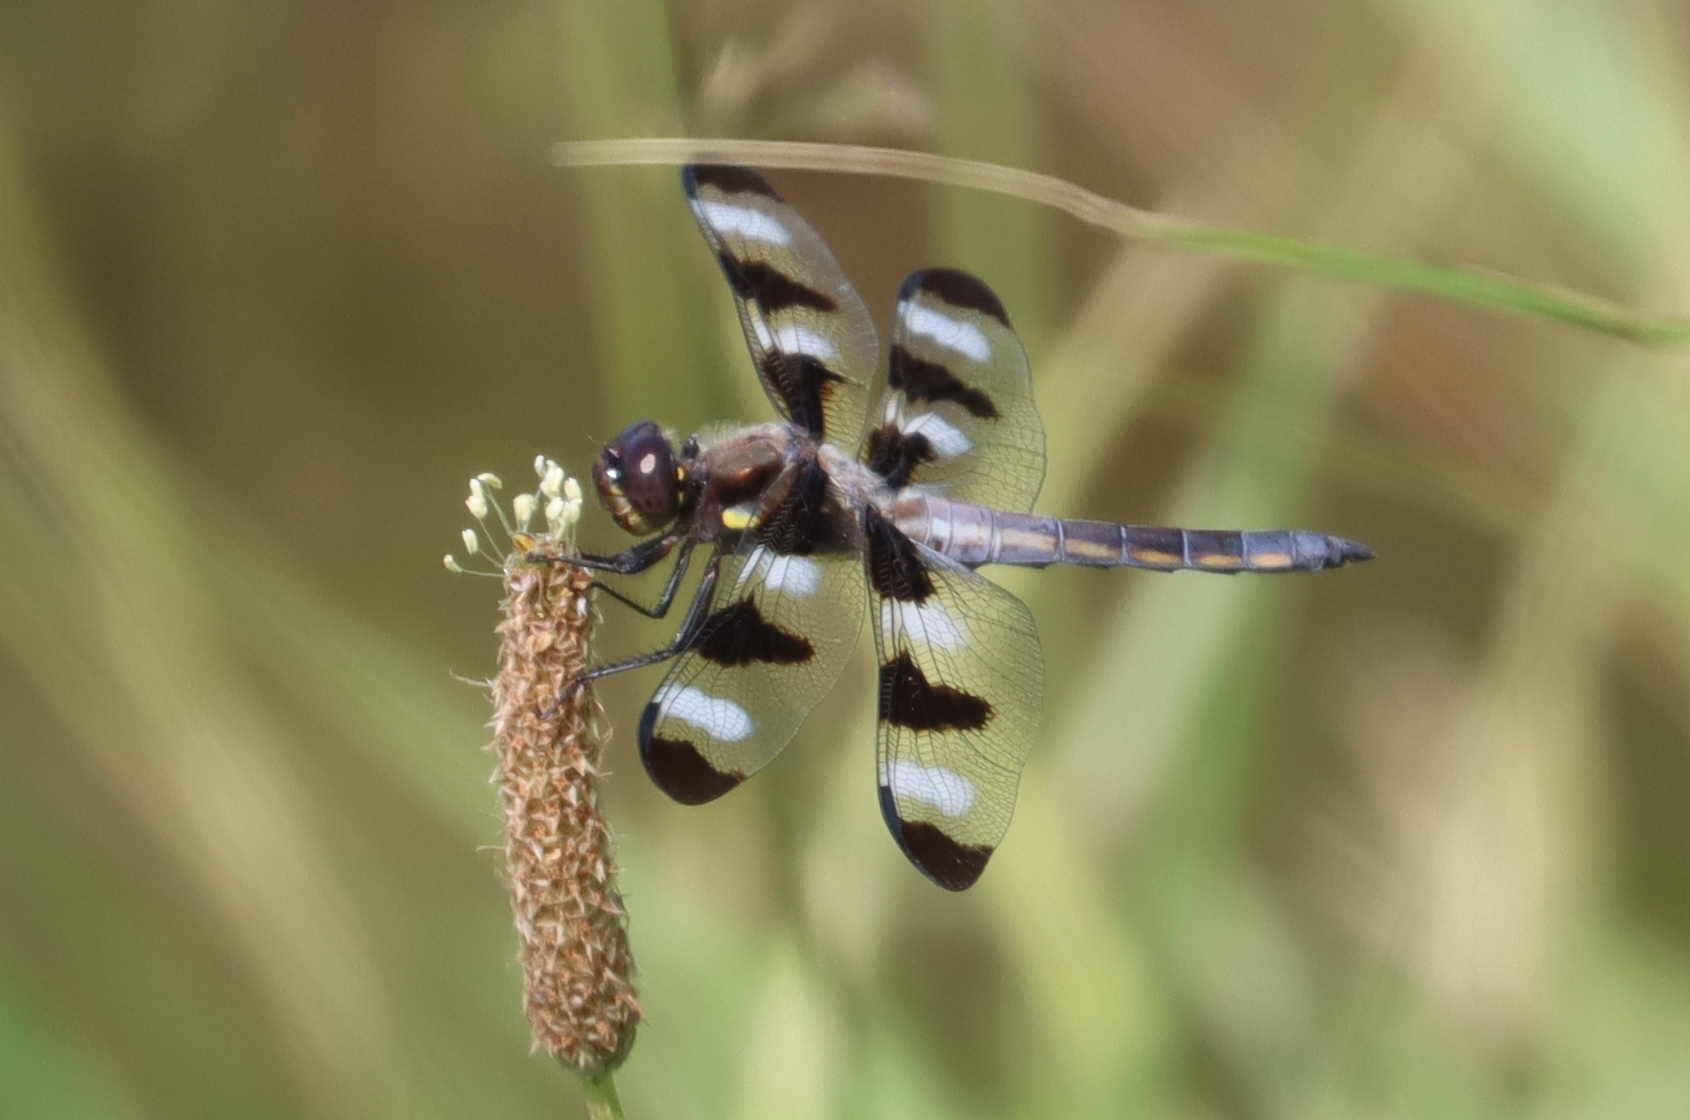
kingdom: Animalia
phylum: Arthropoda
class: Insecta
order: Odonata
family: Libellulidae
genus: Libellula
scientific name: Libellula pulchella
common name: Twelve-spotted skimmer
